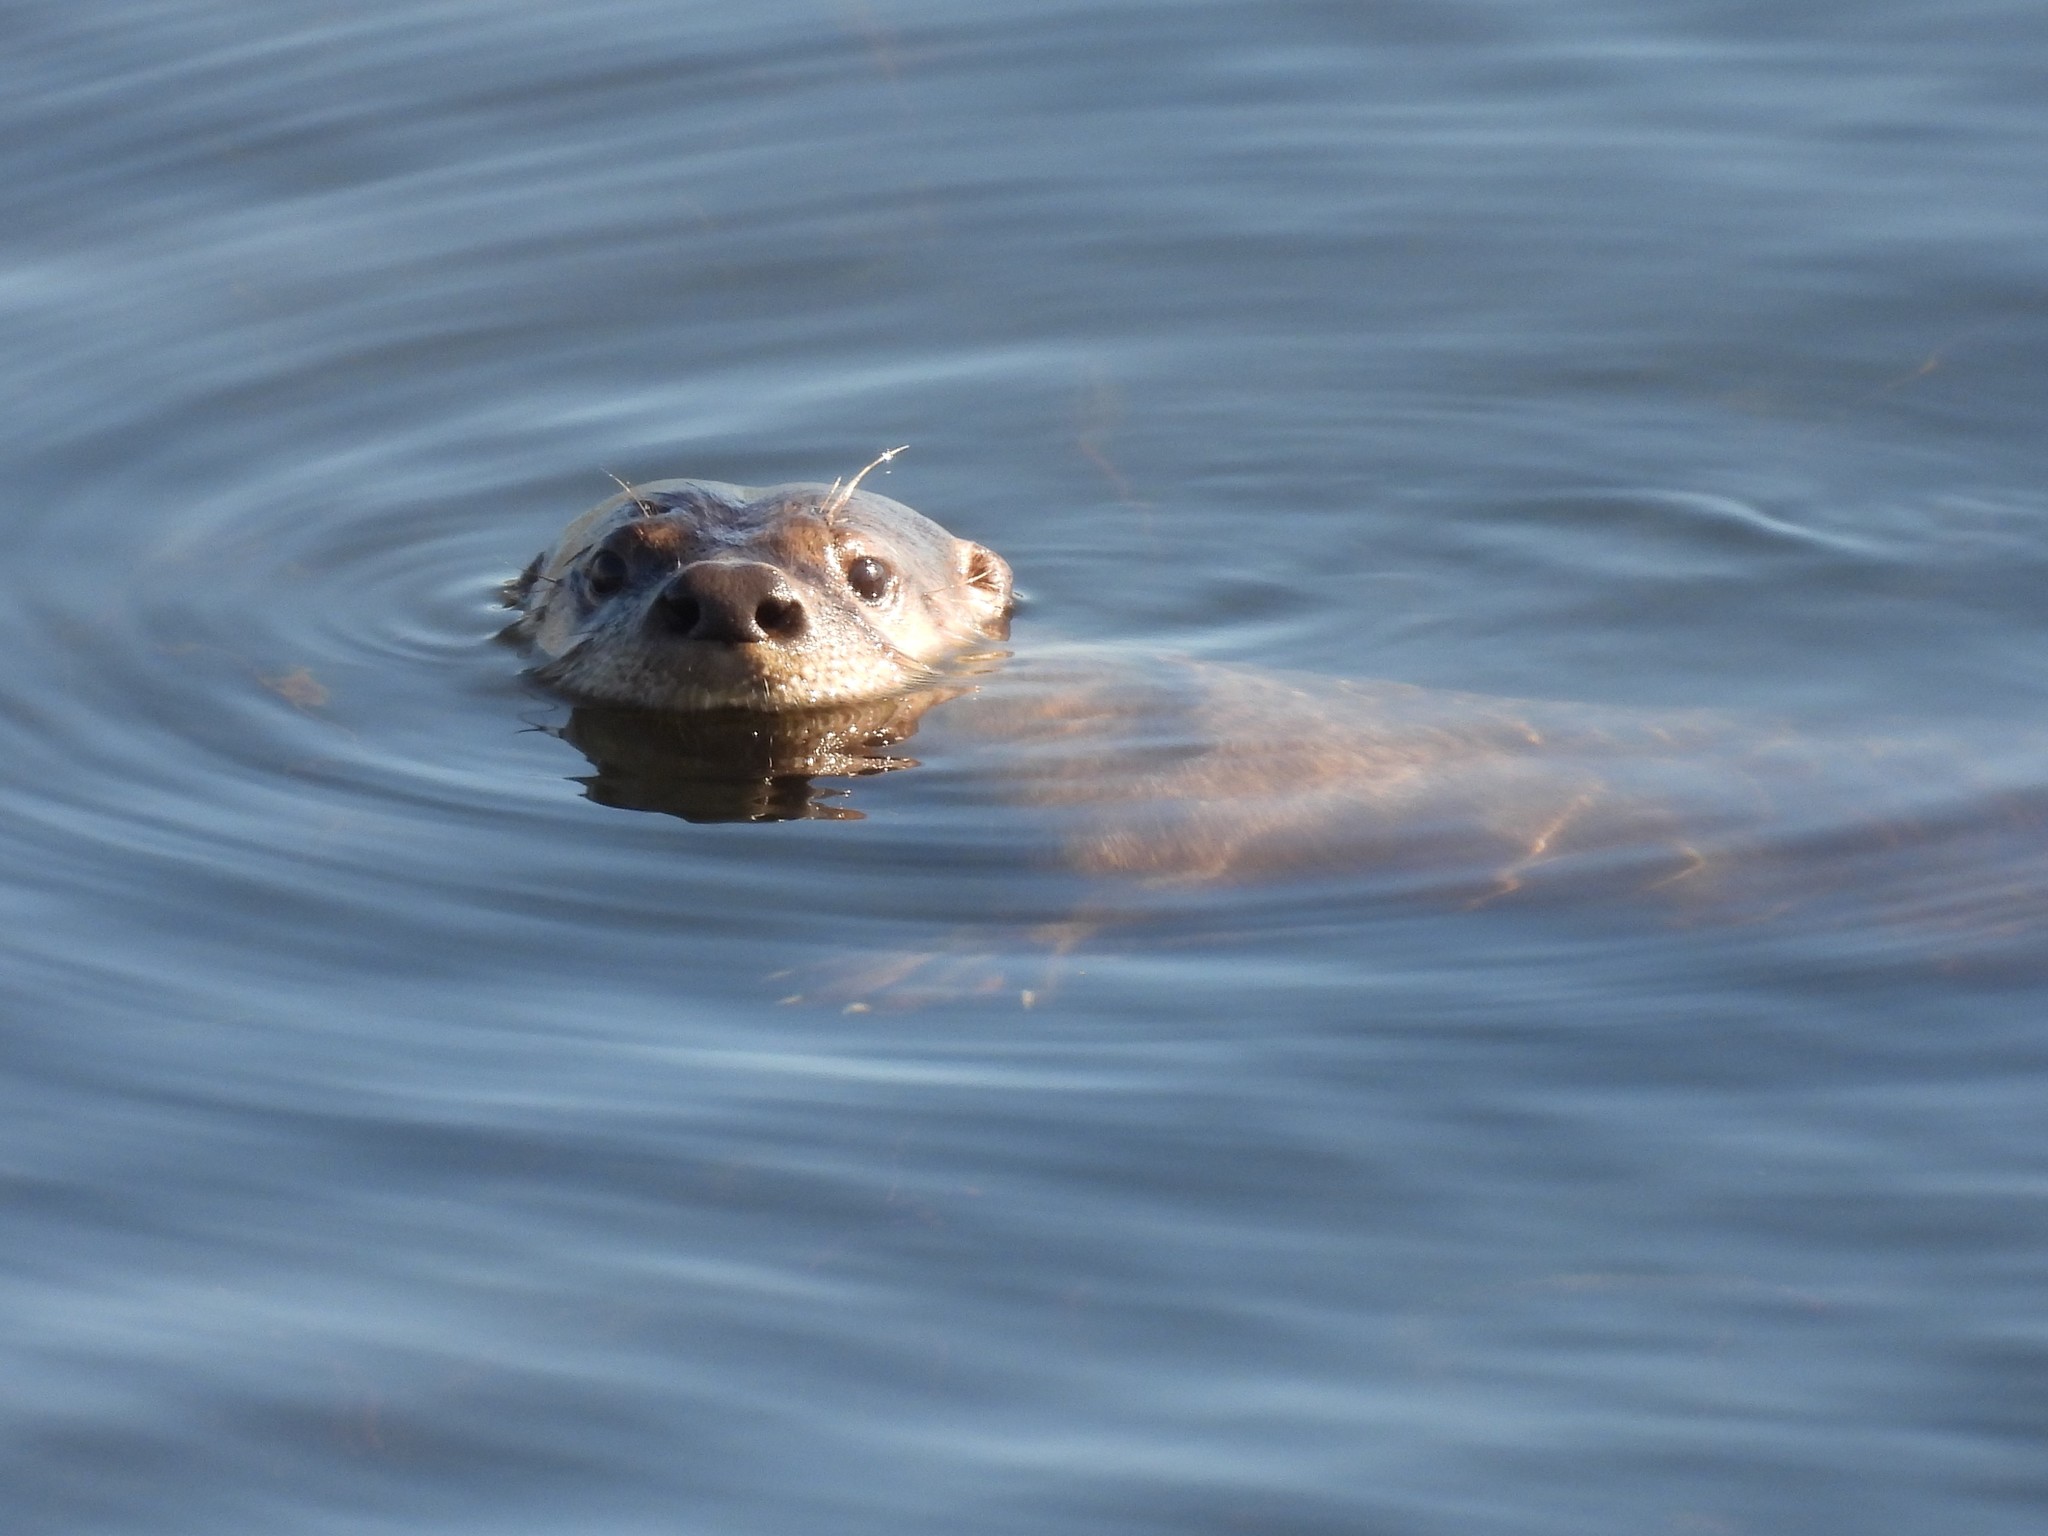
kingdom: Animalia
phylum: Chordata
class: Mammalia
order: Carnivora
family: Mustelidae
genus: Lontra
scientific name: Lontra canadensis
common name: North american river otter
